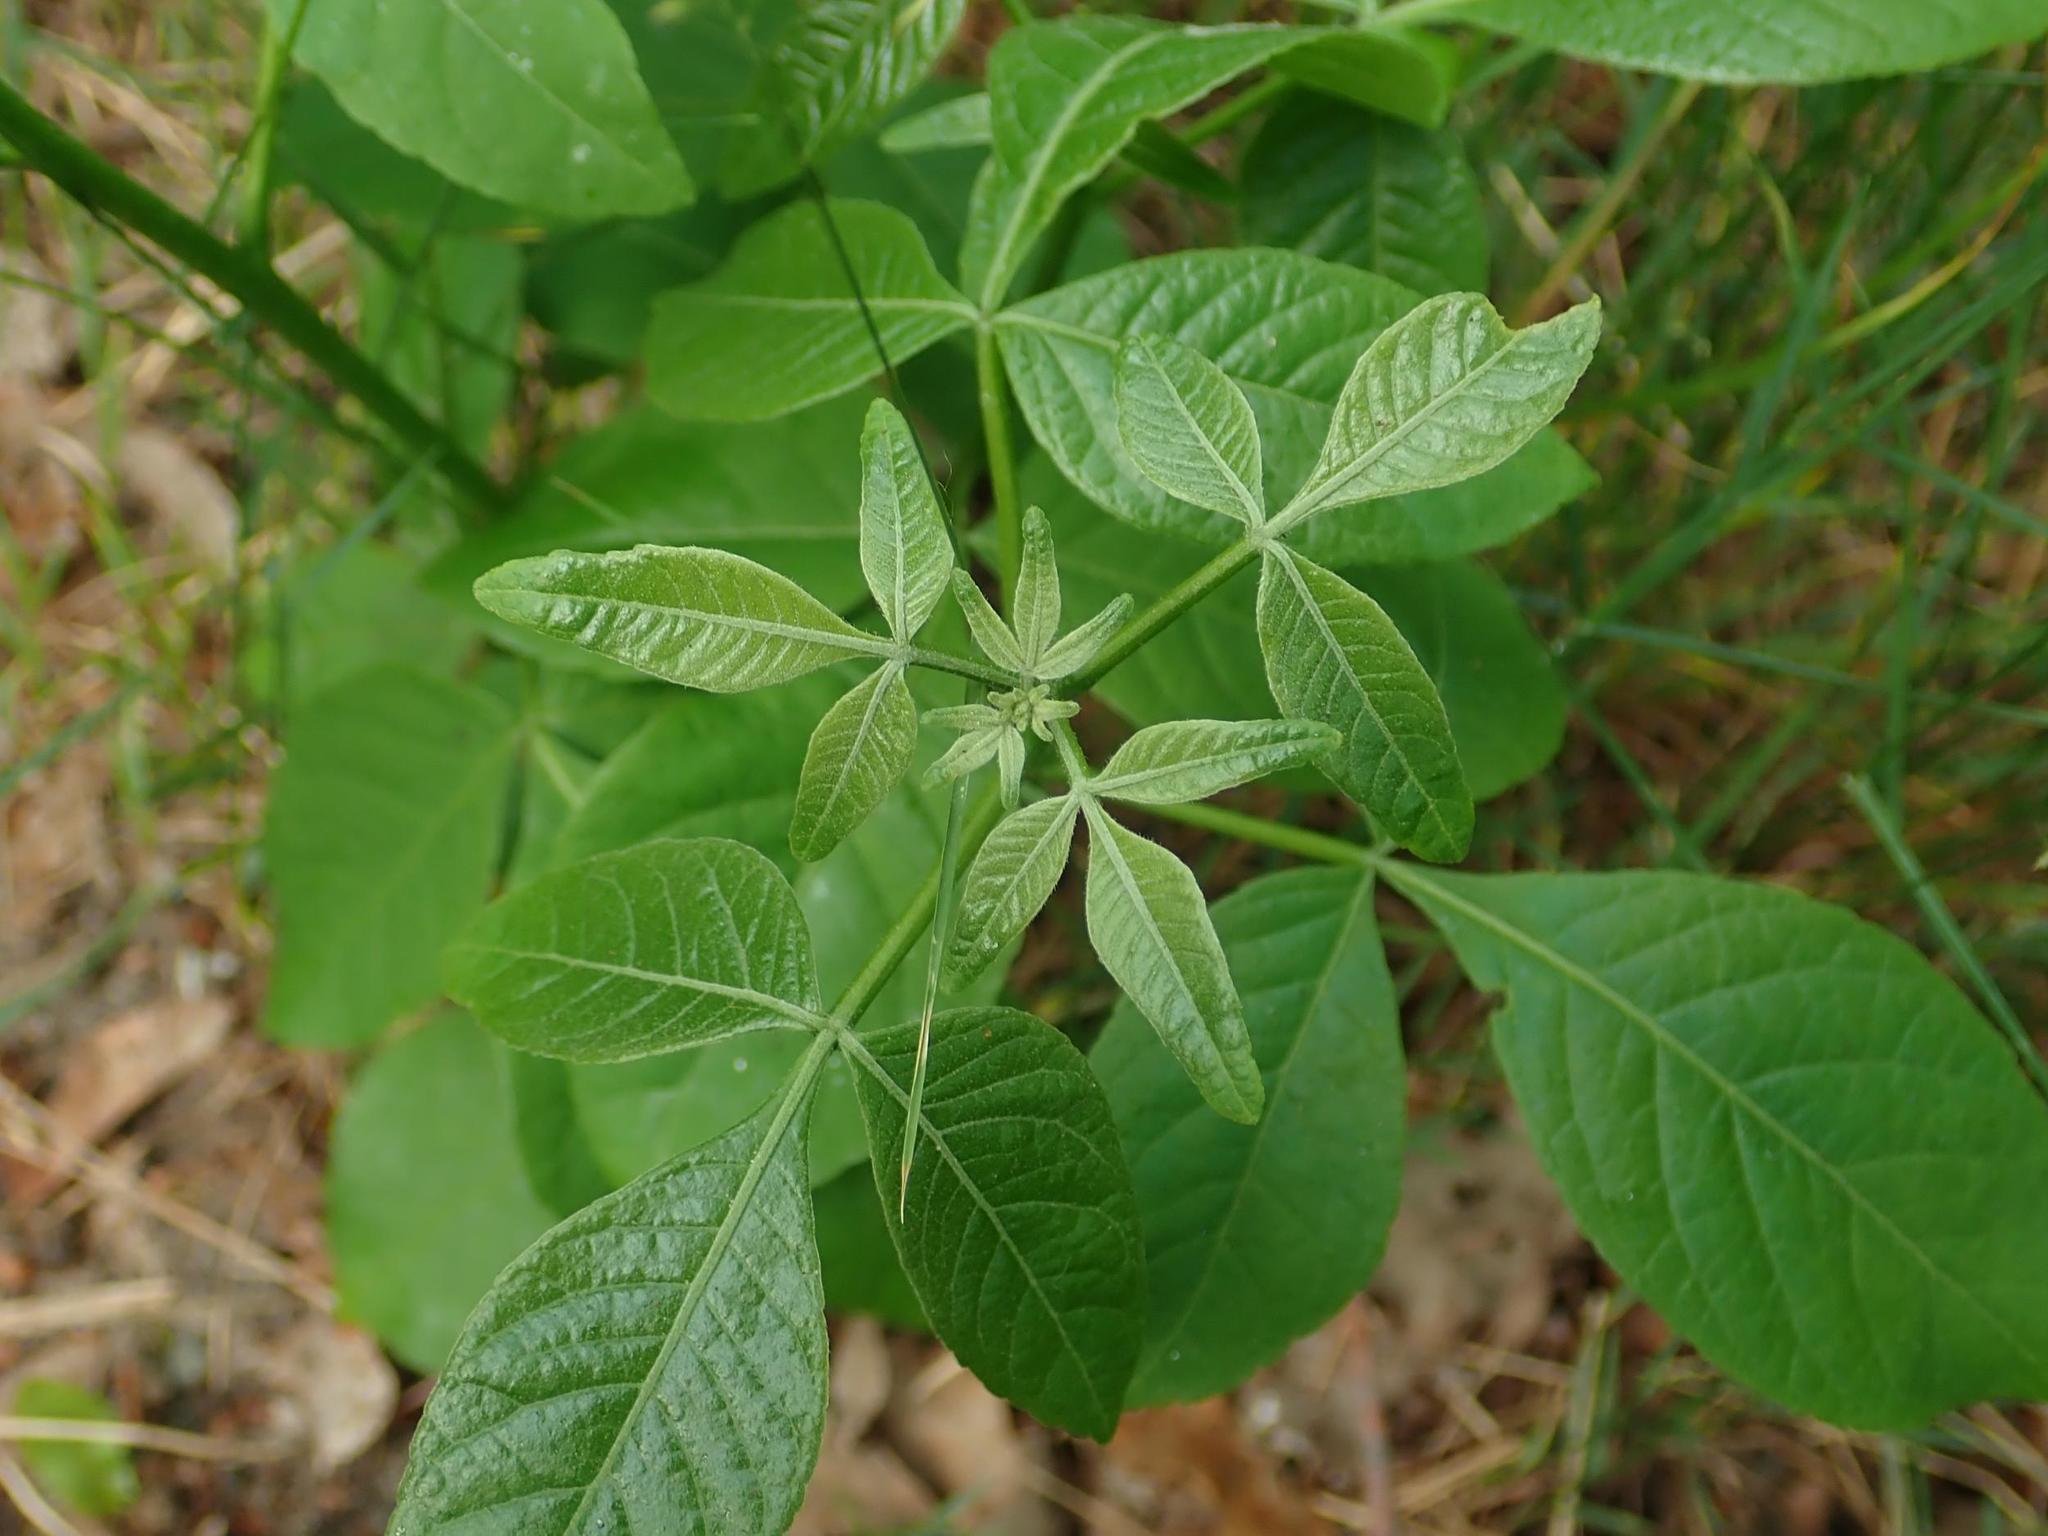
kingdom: Plantae
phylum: Tracheophyta
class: Magnoliopsida
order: Sapindales
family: Rutaceae
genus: Ptelea
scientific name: Ptelea trifoliata
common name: Common hop-tree
